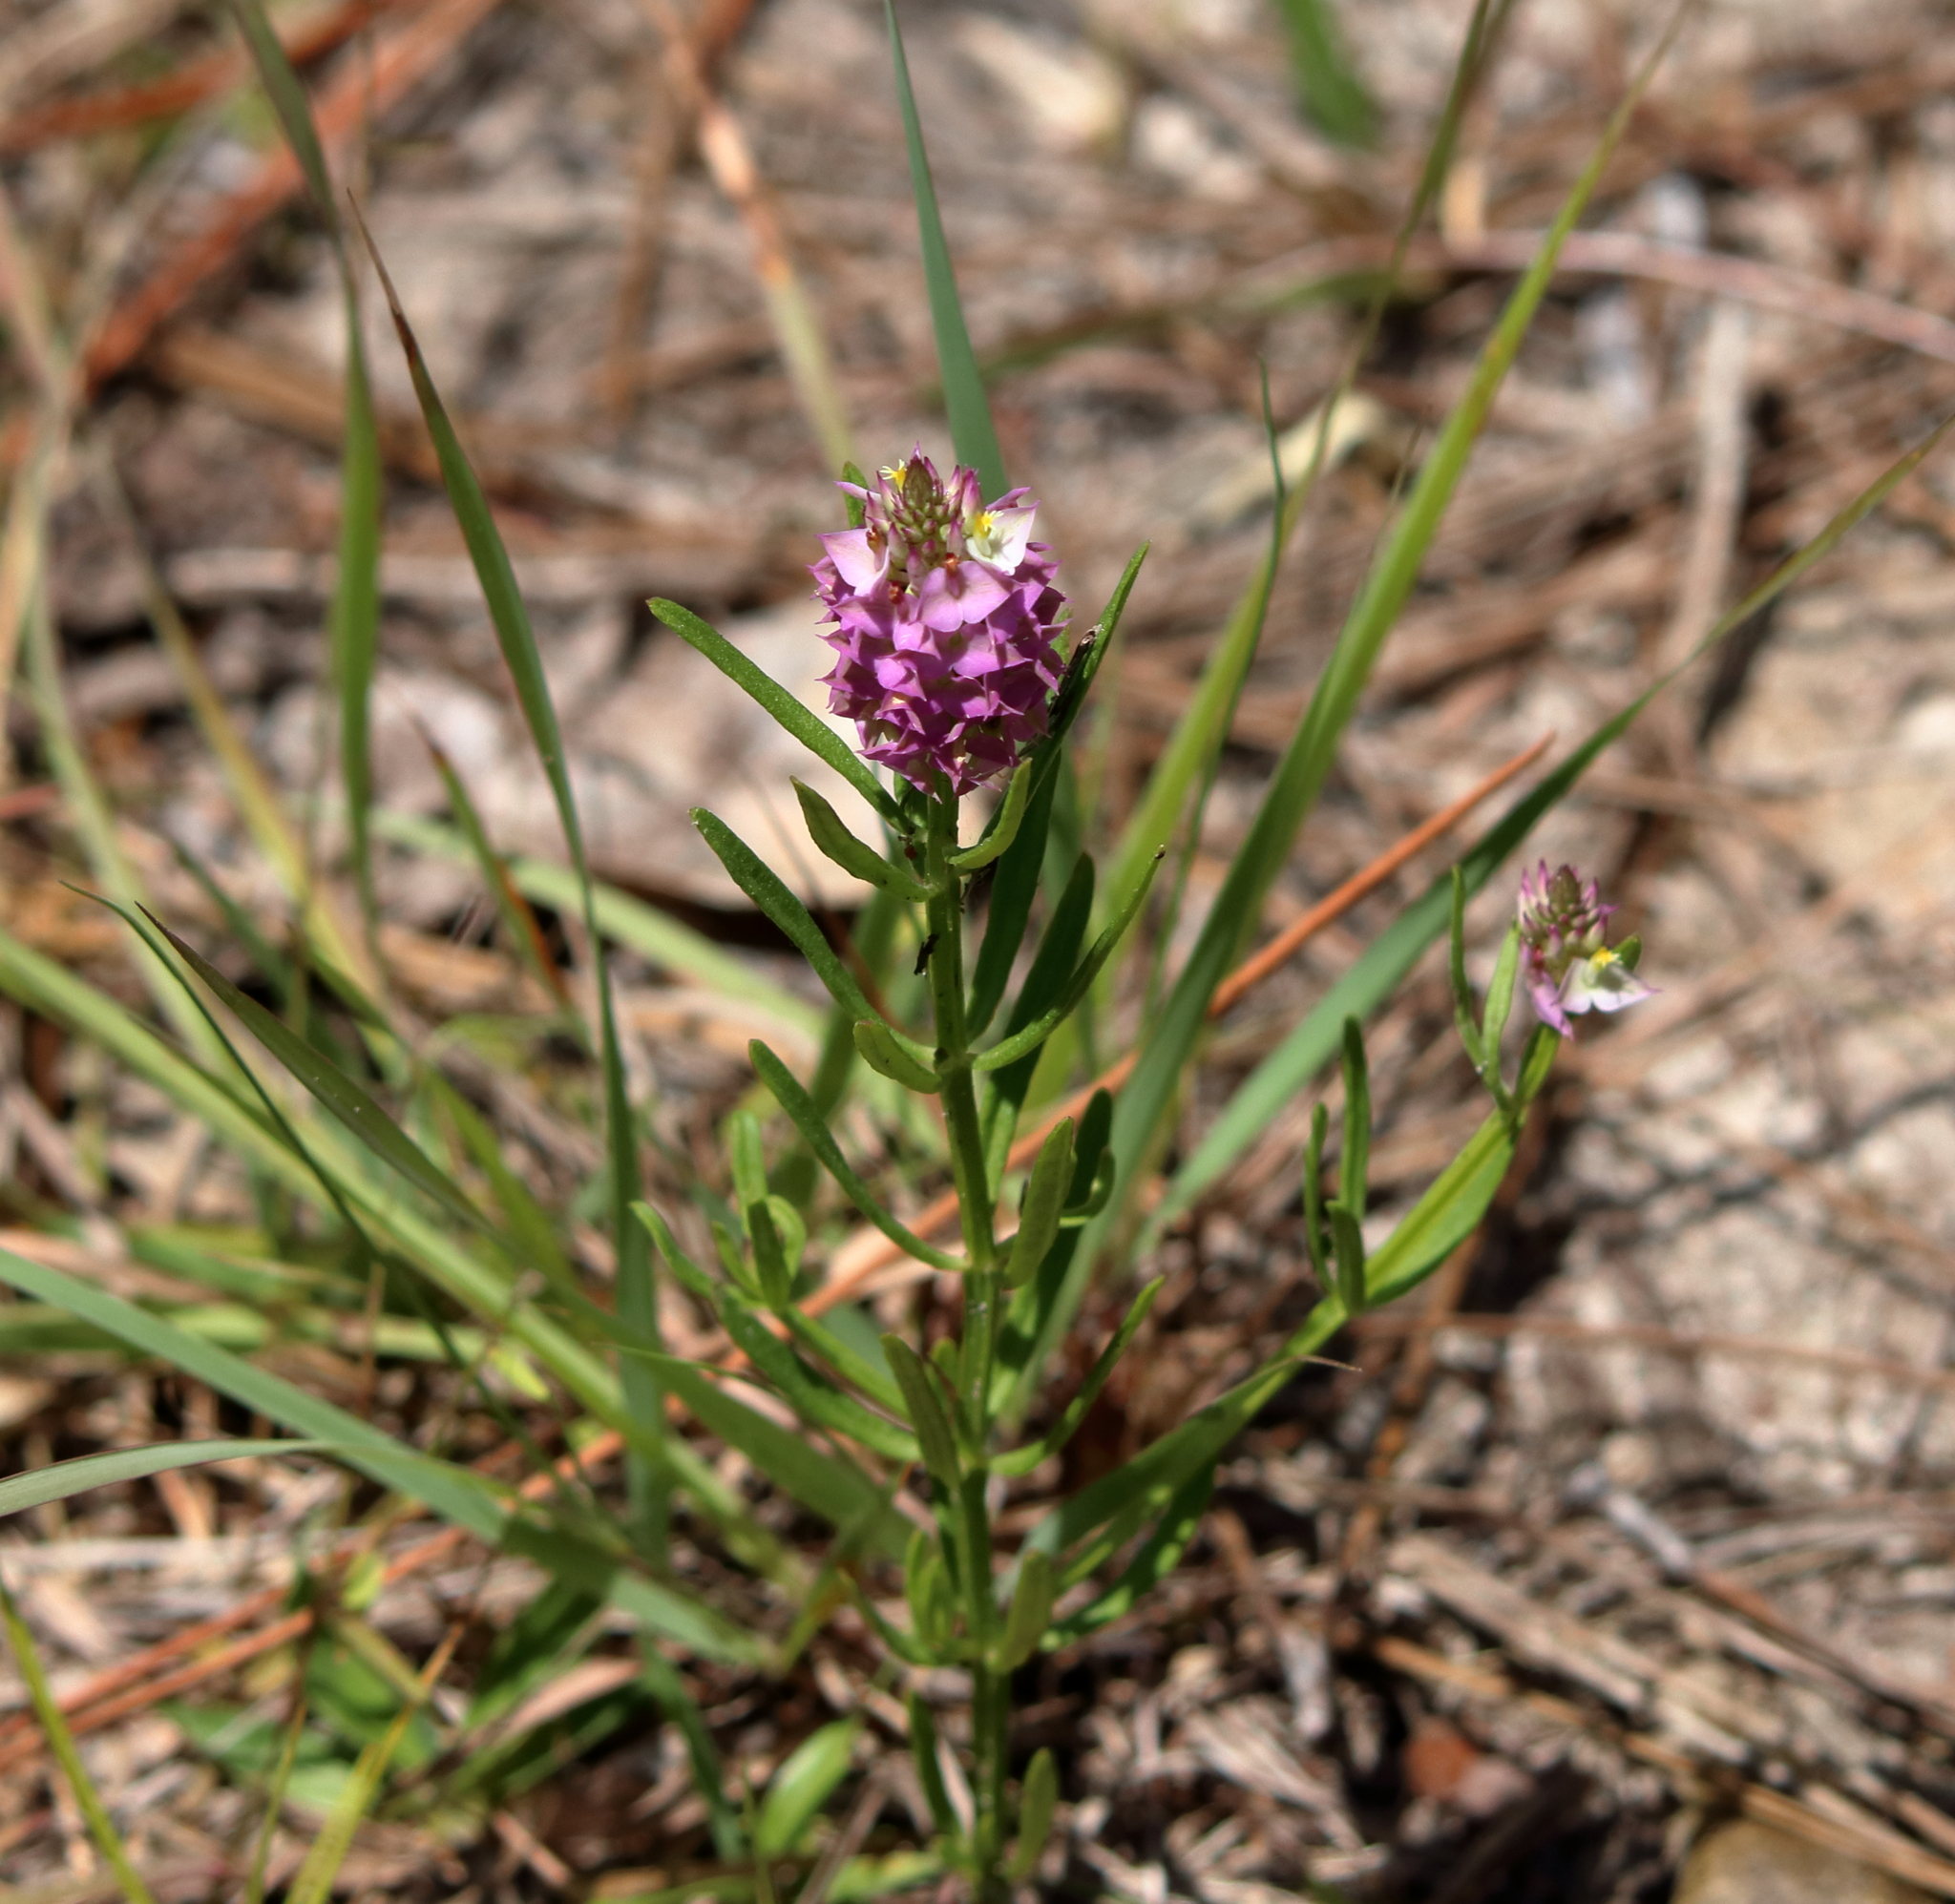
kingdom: Plantae
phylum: Tracheophyta
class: Magnoliopsida
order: Fabales
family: Polygalaceae
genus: Polygala
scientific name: Polygala cruciata
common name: Drumheads
